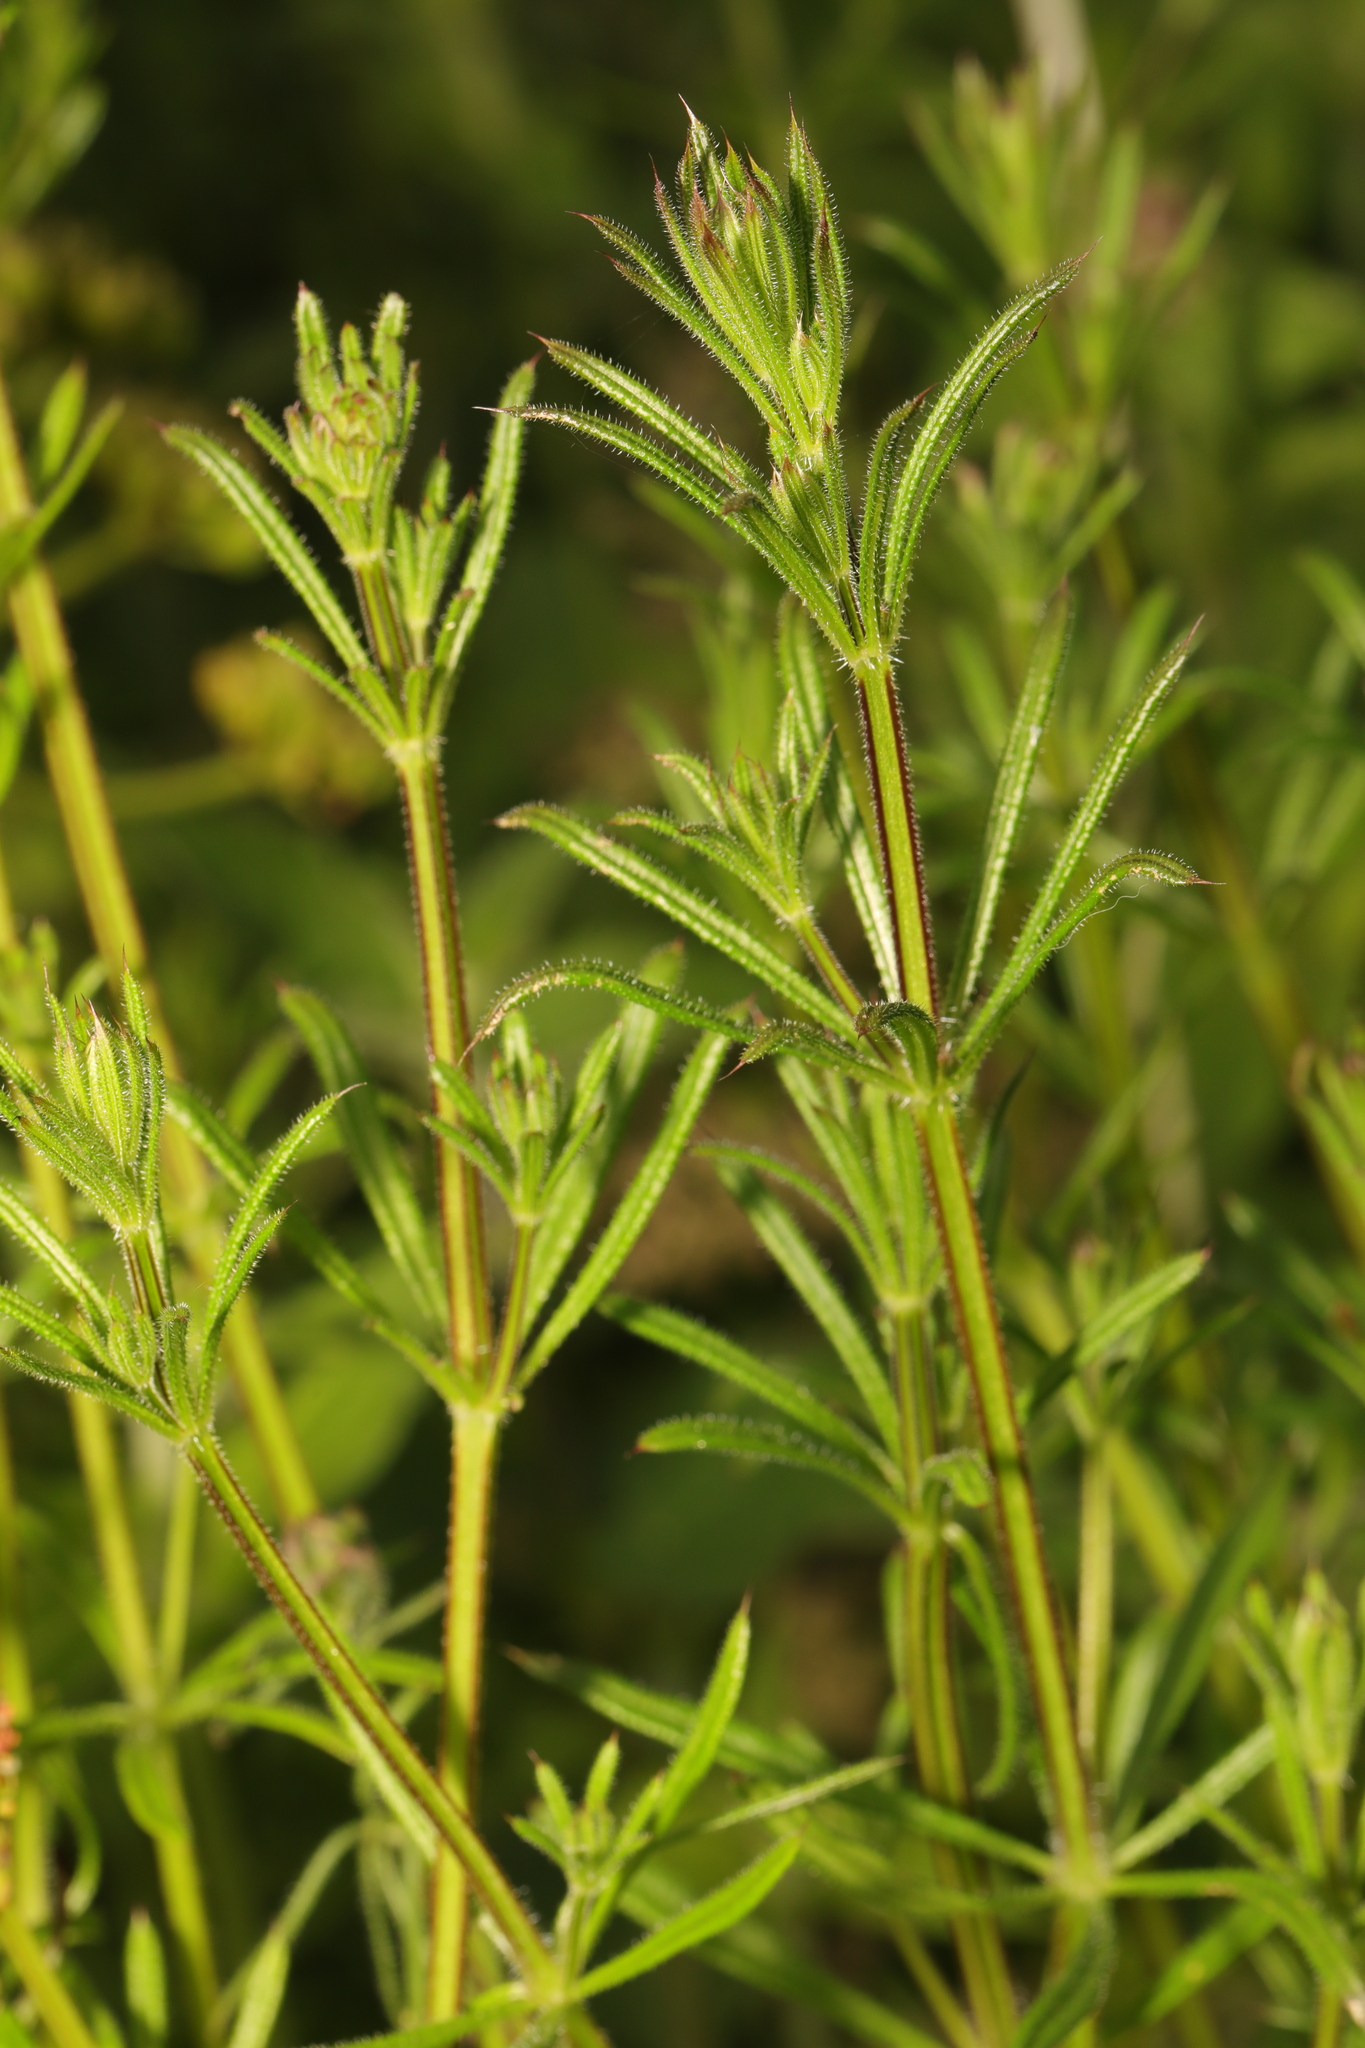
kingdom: Plantae
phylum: Tracheophyta
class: Magnoliopsida
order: Gentianales
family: Rubiaceae
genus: Galium
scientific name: Galium aparine
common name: Cleavers
